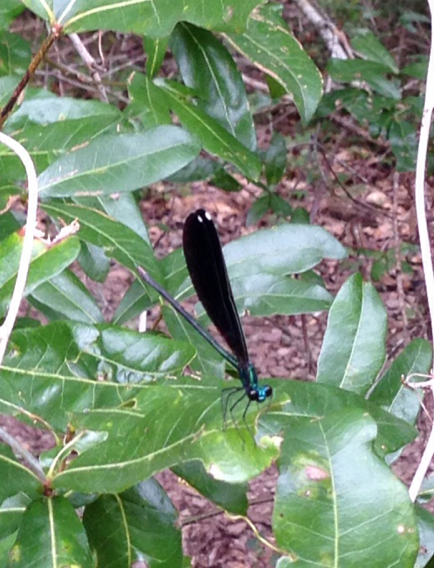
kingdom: Animalia
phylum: Arthropoda
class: Insecta
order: Odonata
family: Calopterygidae
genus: Calopteryx
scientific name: Calopteryx maculata
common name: Ebony jewelwing
